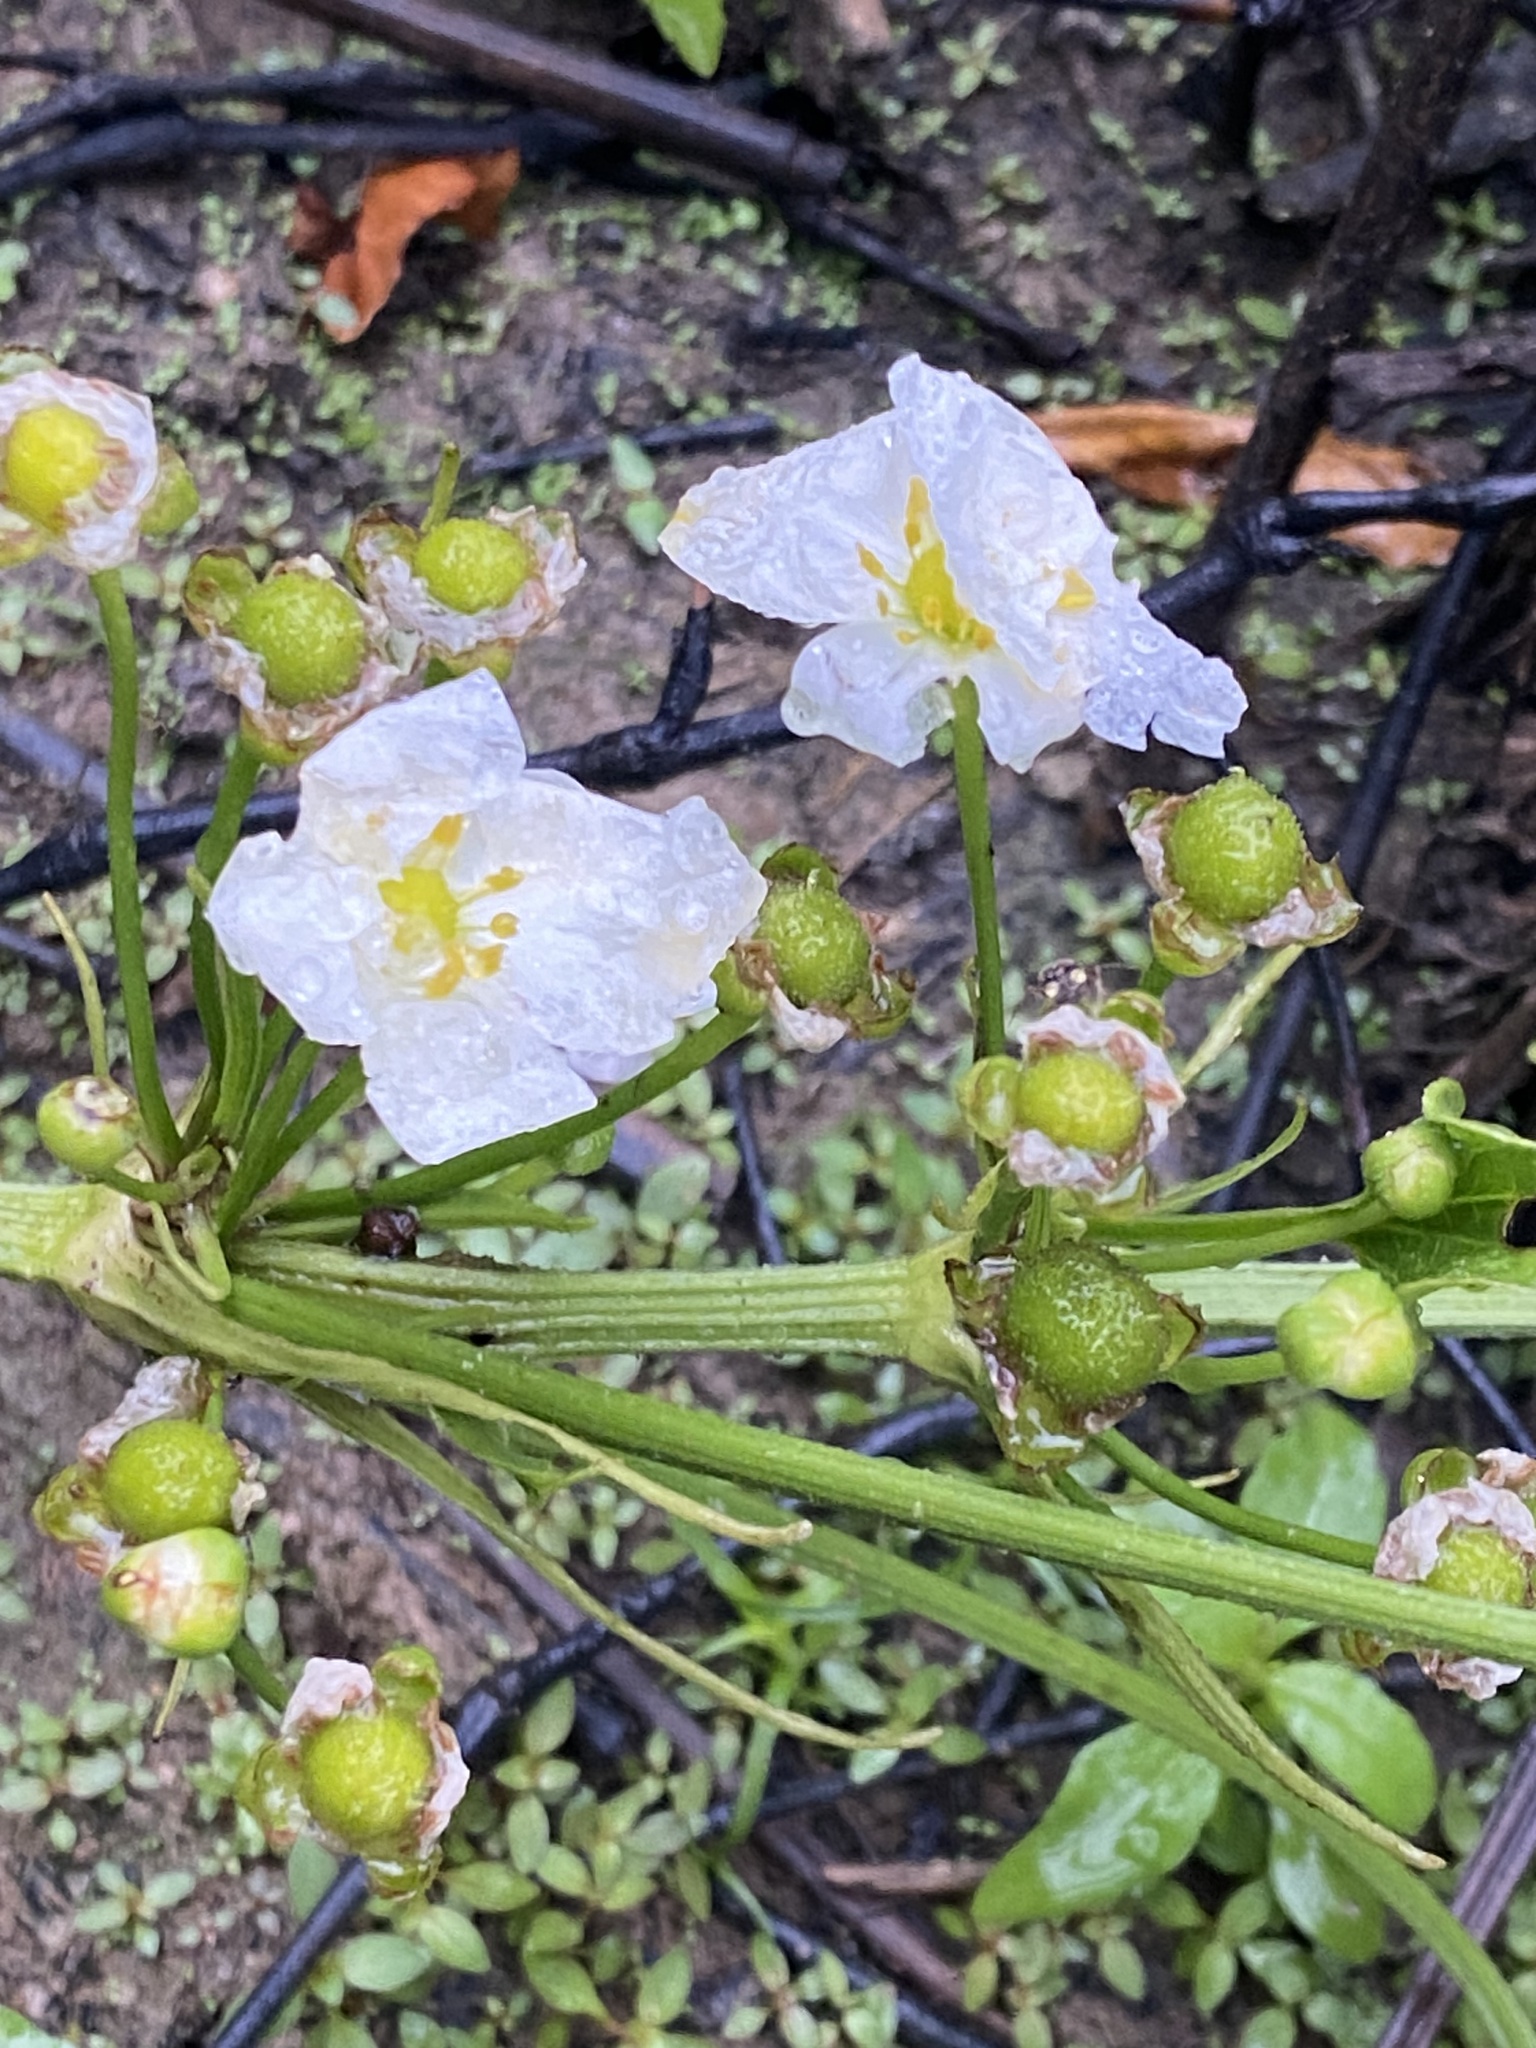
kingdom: Plantae
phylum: Tracheophyta
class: Liliopsida
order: Alismatales
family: Alismataceae
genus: Aquarius
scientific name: Aquarius cordifolius
